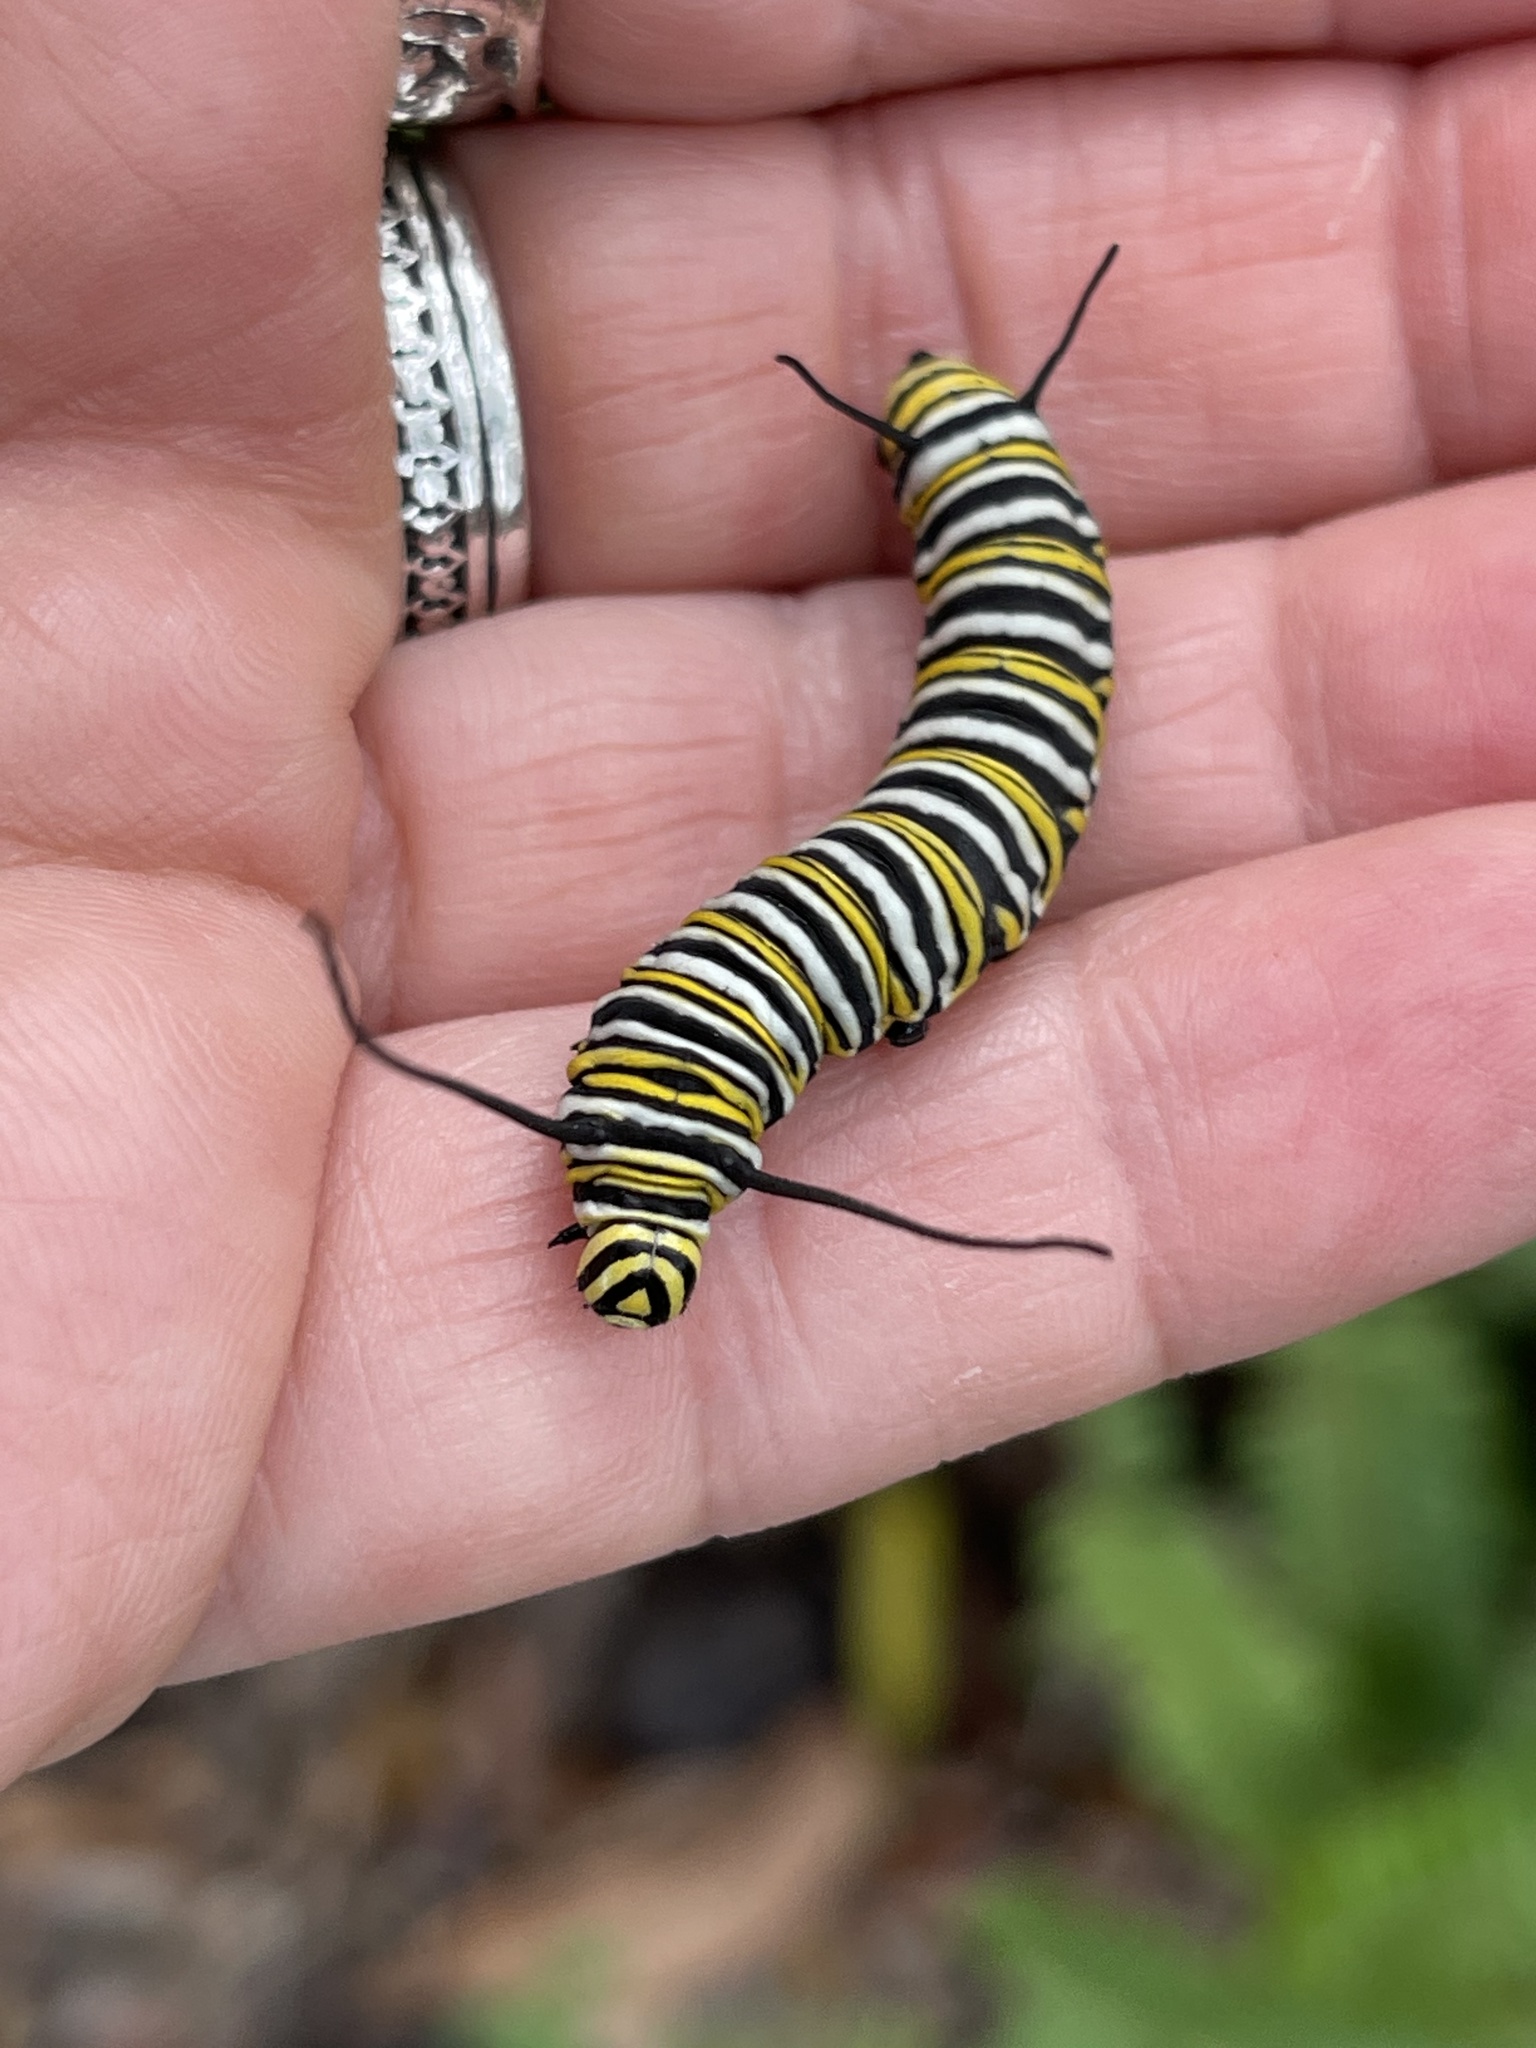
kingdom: Animalia
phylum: Arthropoda
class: Insecta
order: Lepidoptera
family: Nymphalidae
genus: Danaus
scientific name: Danaus plexippus
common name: Monarch
